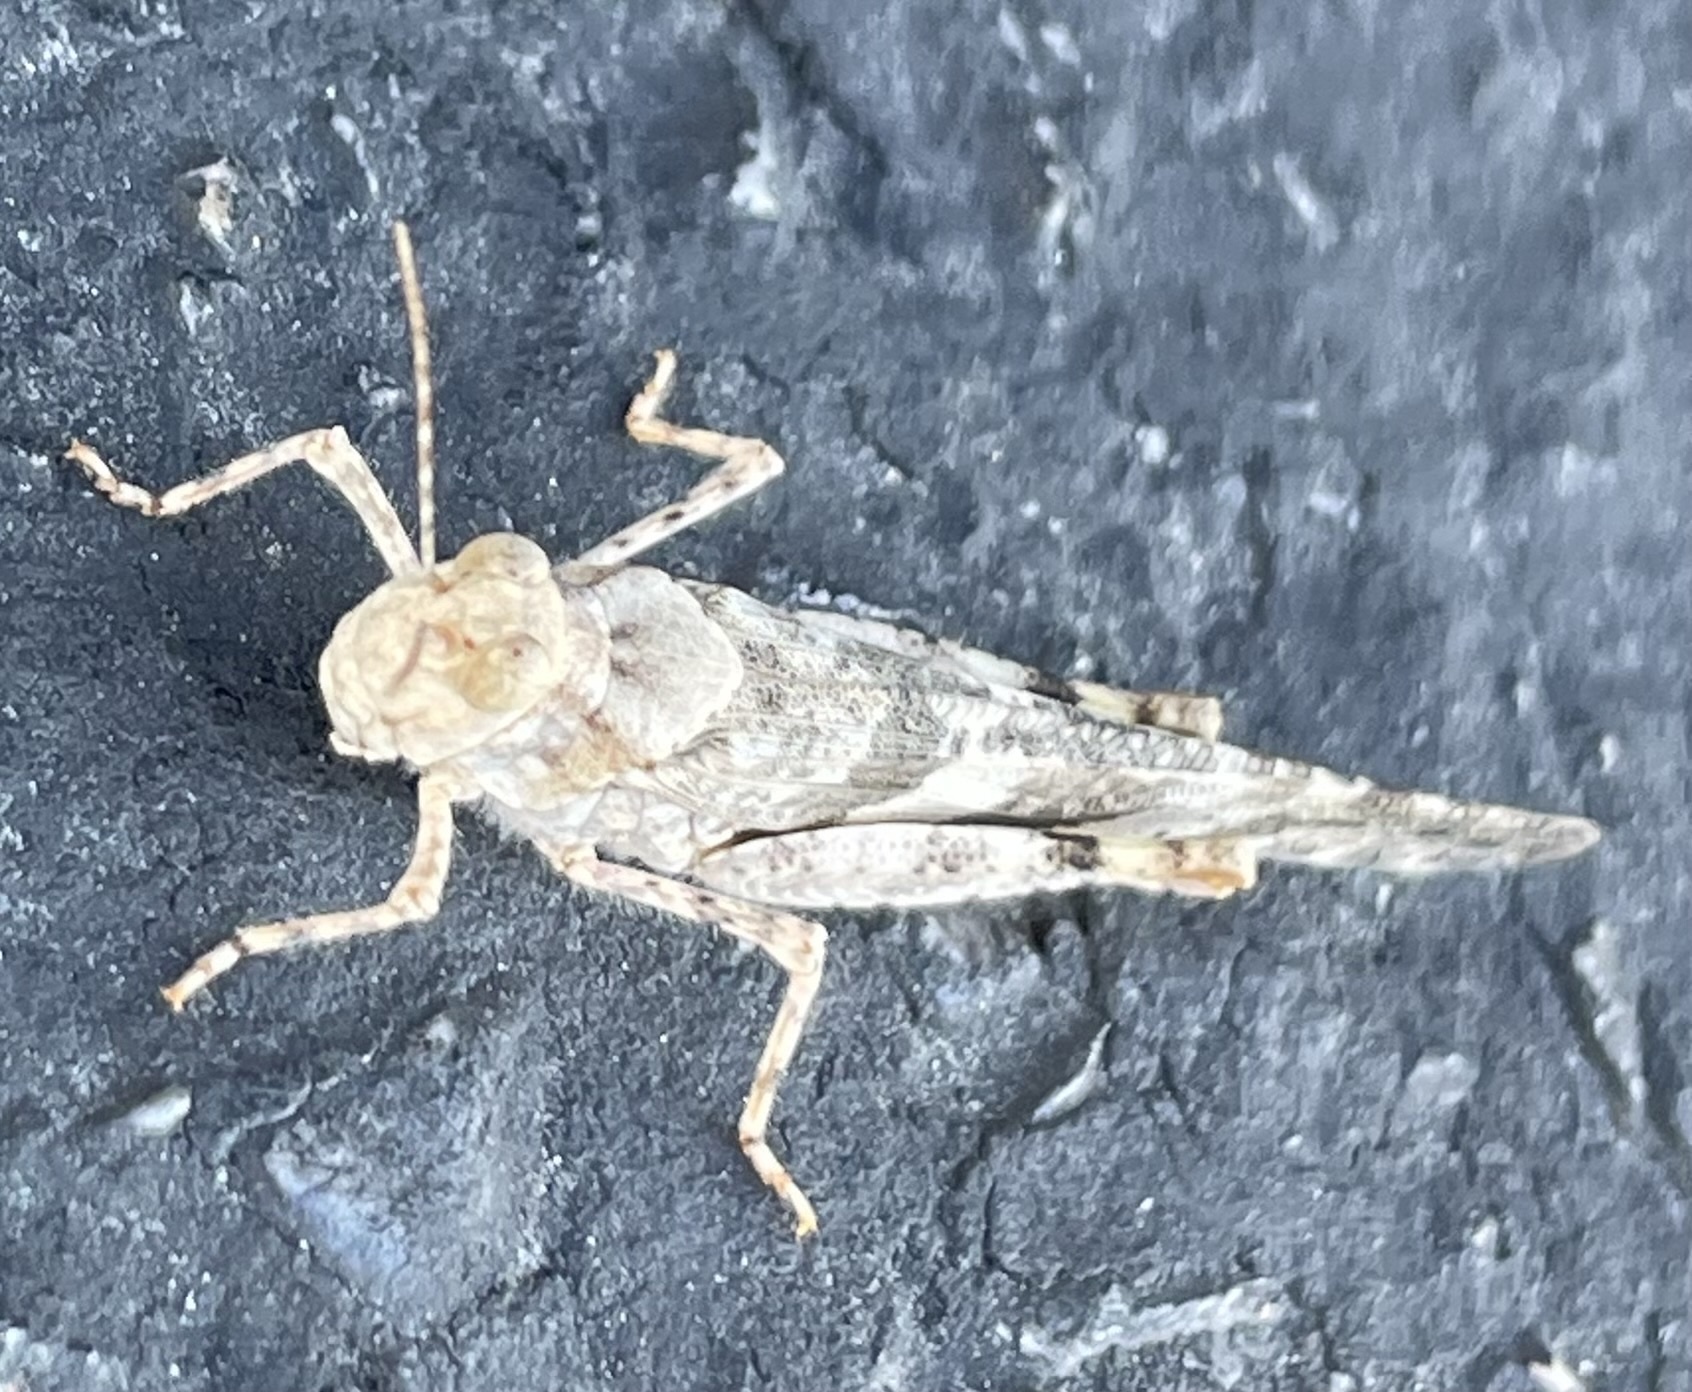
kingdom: Animalia
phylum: Arthropoda
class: Insecta
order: Orthoptera
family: Acrididae
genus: Trimerotropis
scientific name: Trimerotropis pallidipennis
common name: Pallid-winged grasshopper
